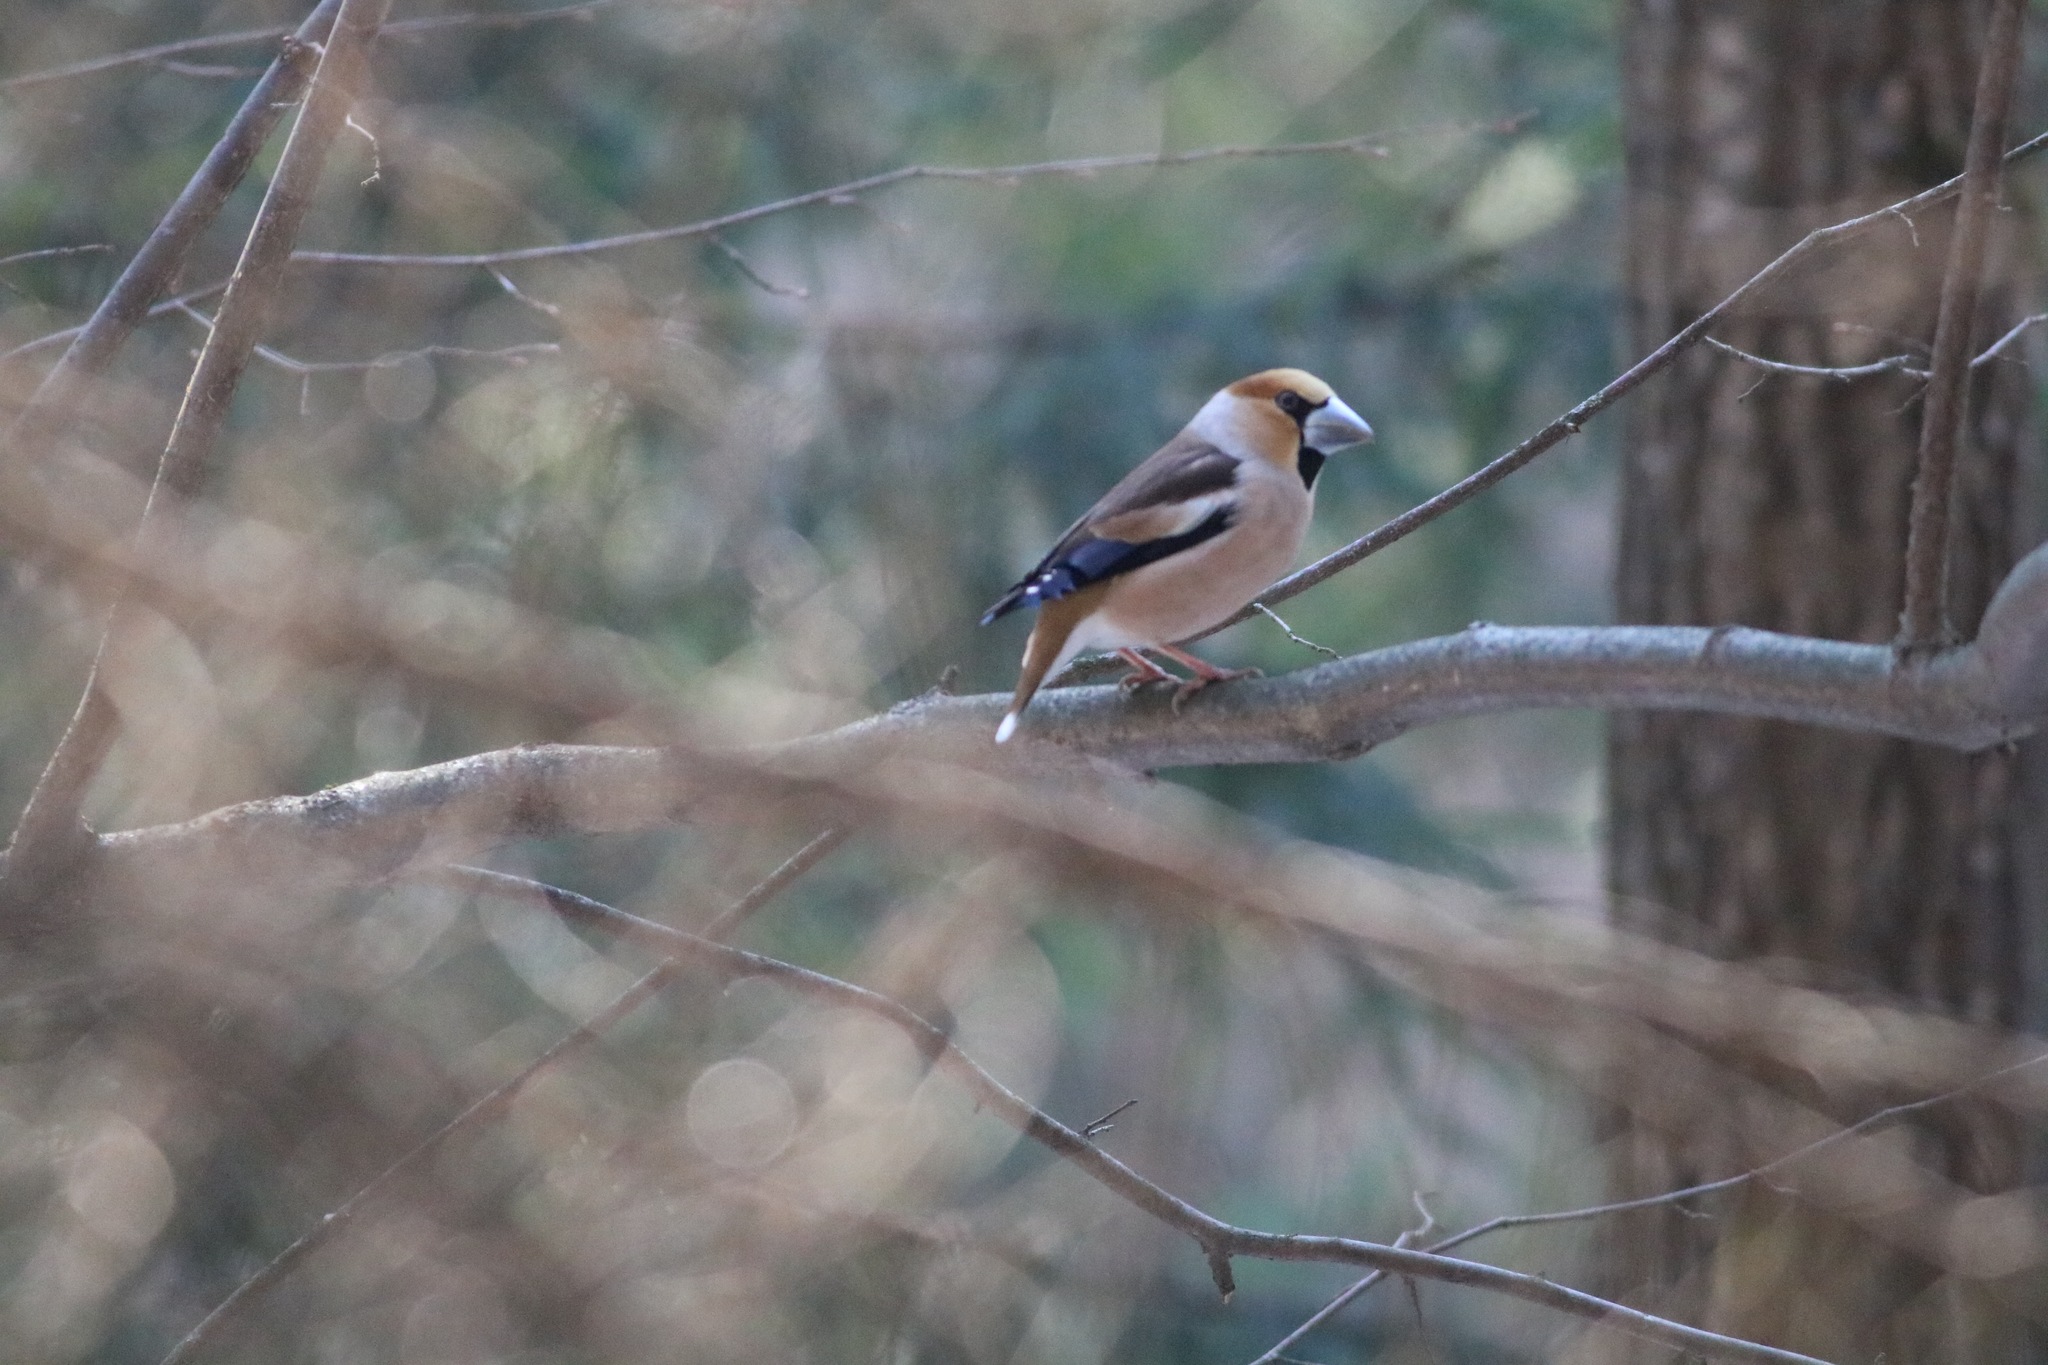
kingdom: Animalia
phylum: Chordata
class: Aves
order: Passeriformes
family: Fringillidae
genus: Coccothraustes
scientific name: Coccothraustes coccothraustes
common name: Hawfinch
